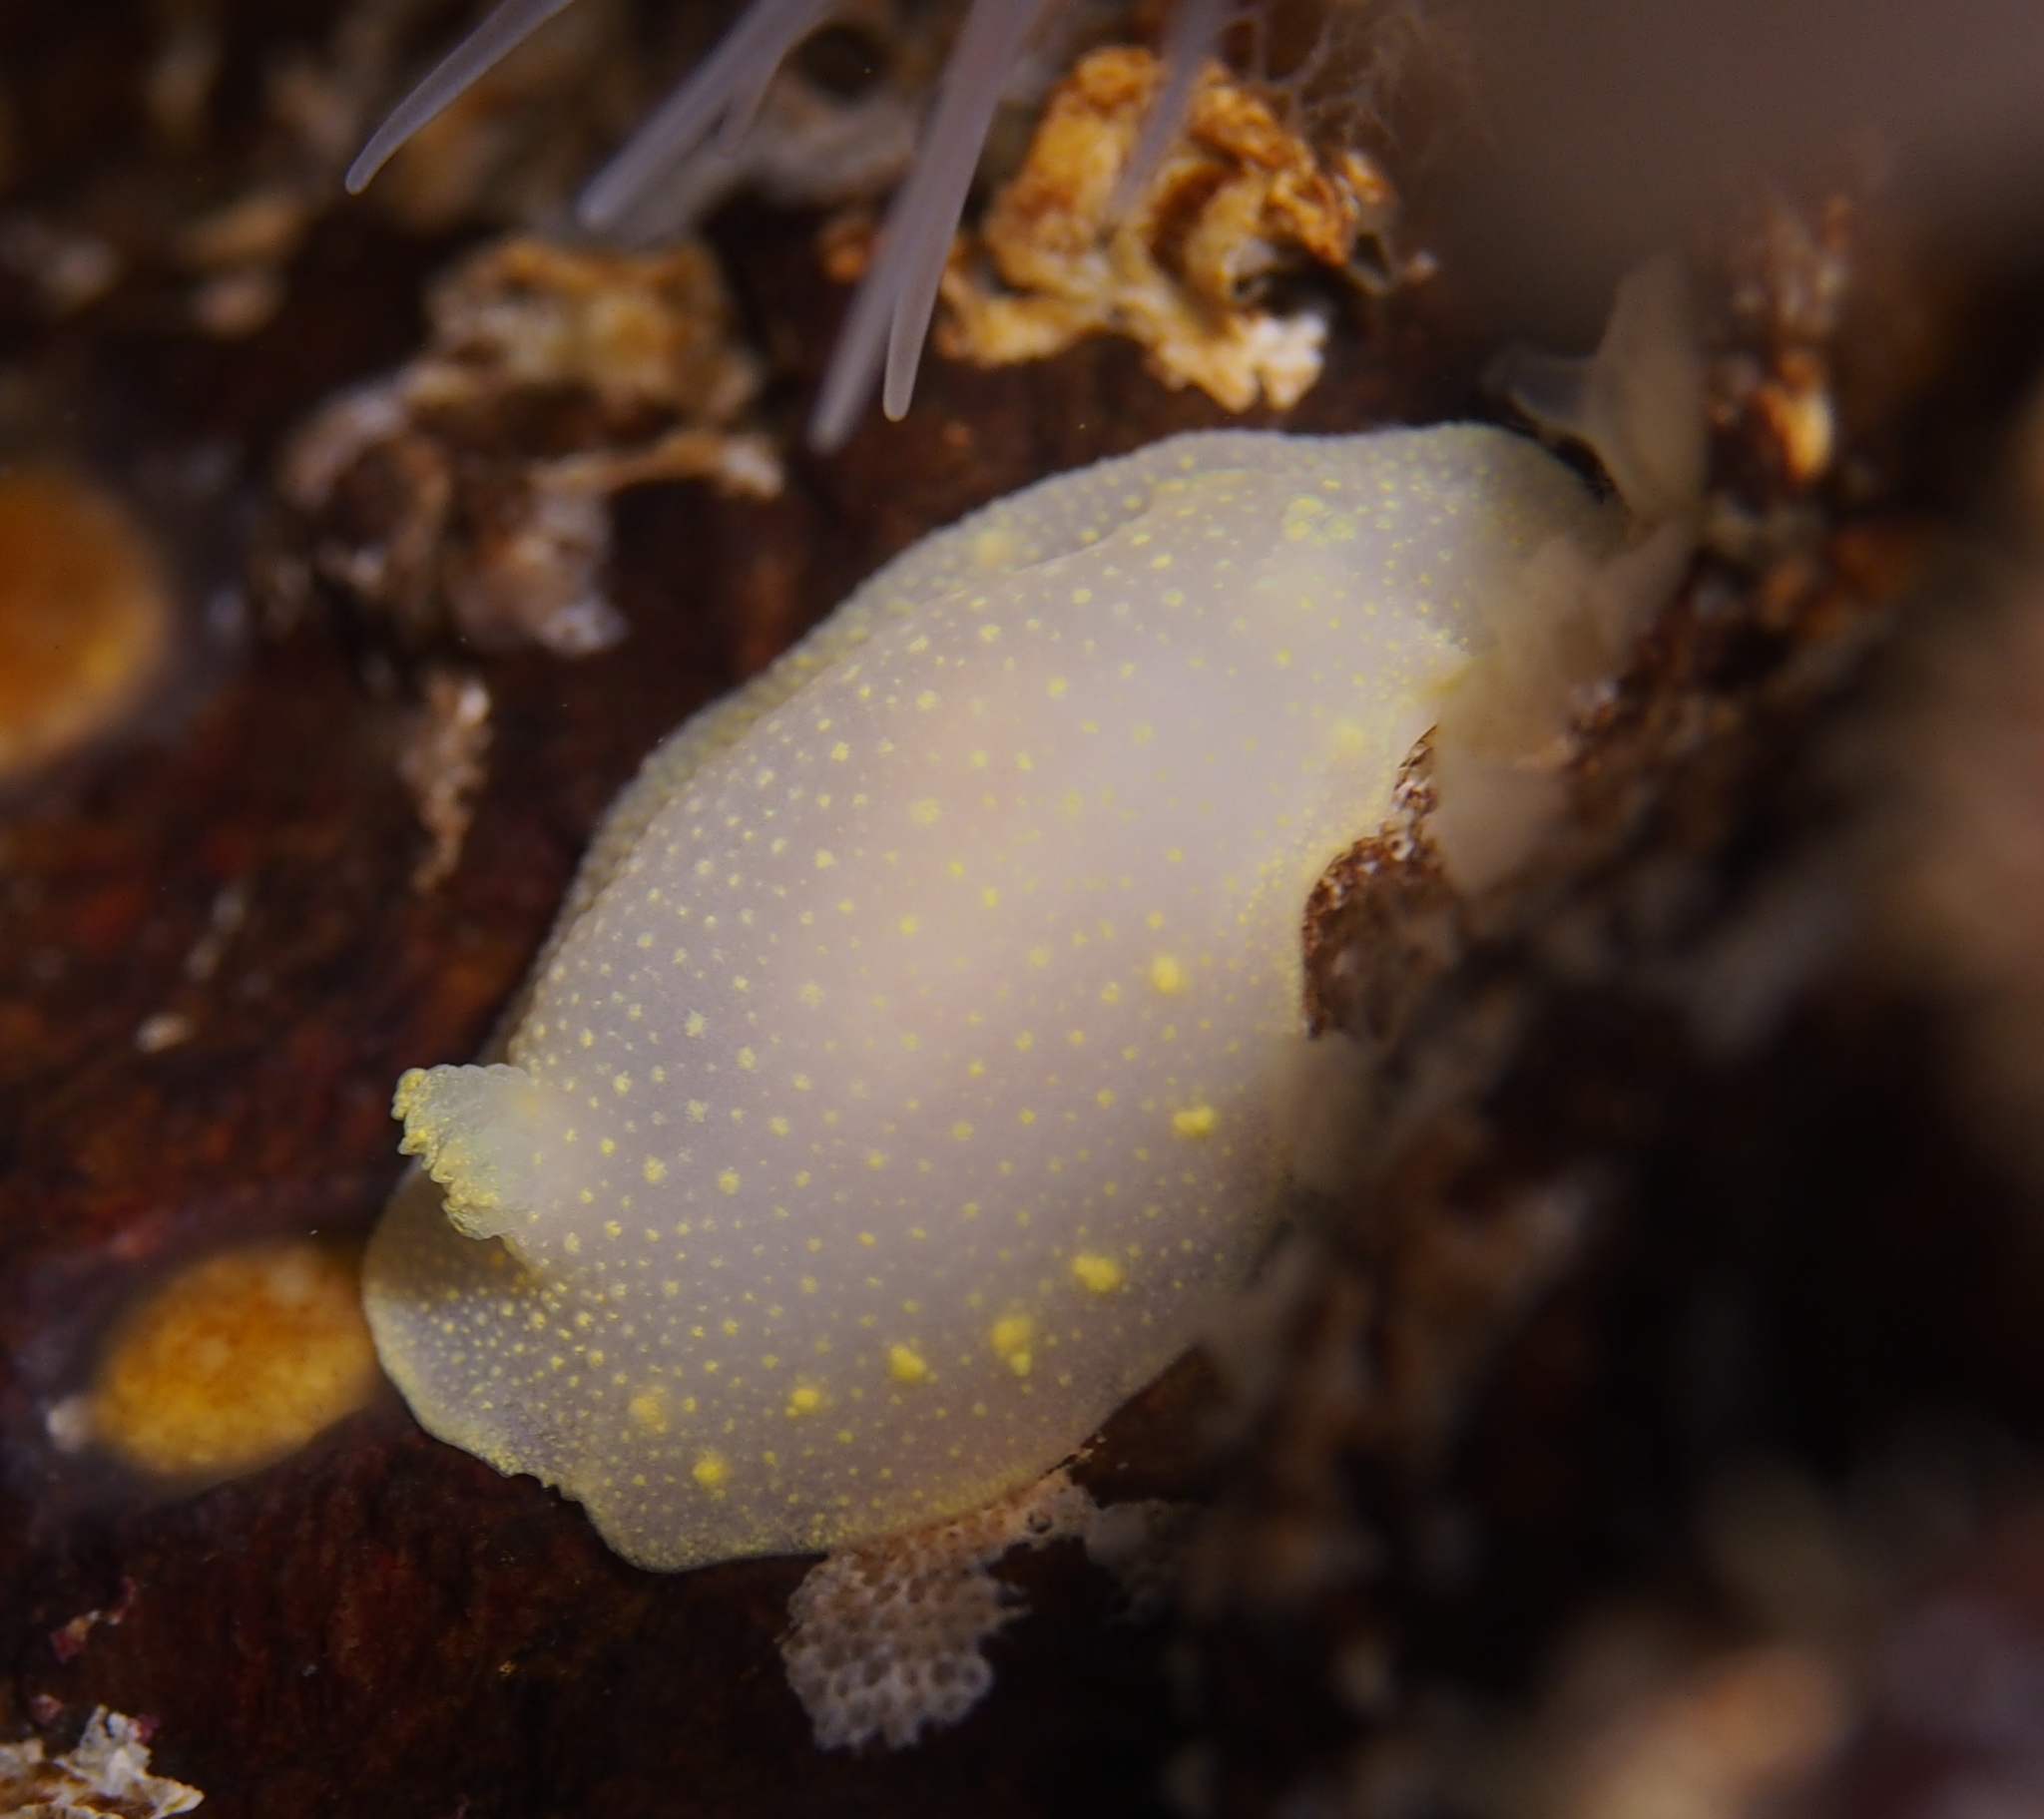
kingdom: Animalia
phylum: Mollusca
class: Gastropoda
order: Nudibranchia
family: Cadlinidae
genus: Cadlina
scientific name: Cadlina laevis
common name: White atlantic cadlina
